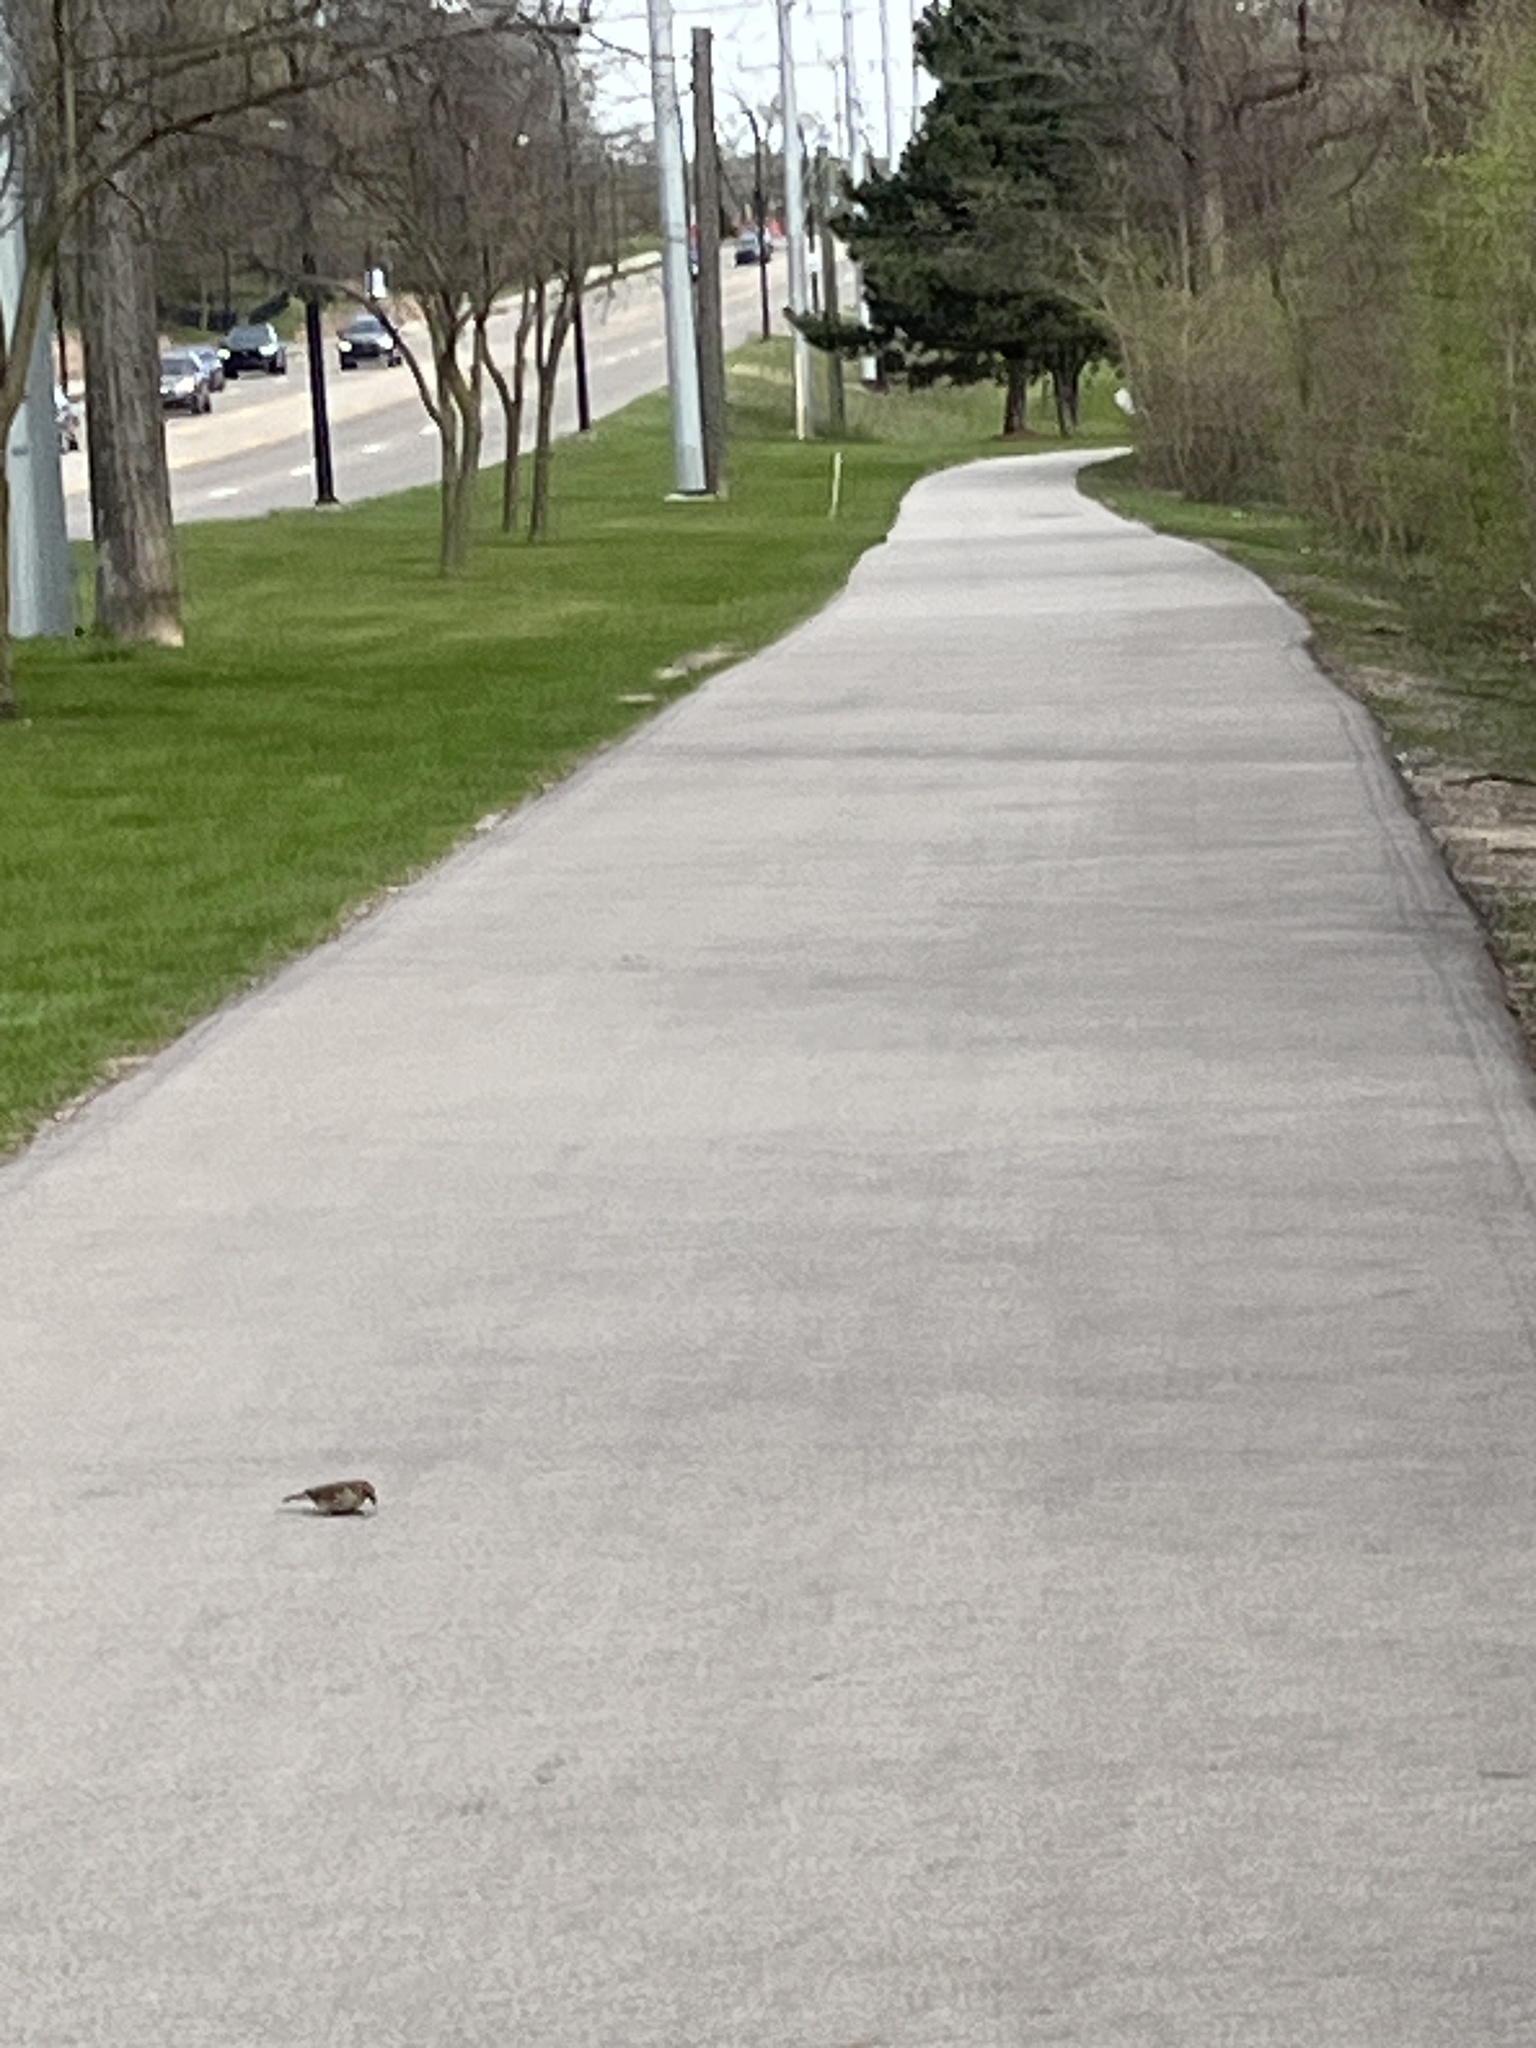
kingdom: Animalia
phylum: Chordata
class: Aves
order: Passeriformes
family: Passeridae
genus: Passer
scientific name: Passer domesticus
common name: House sparrow
